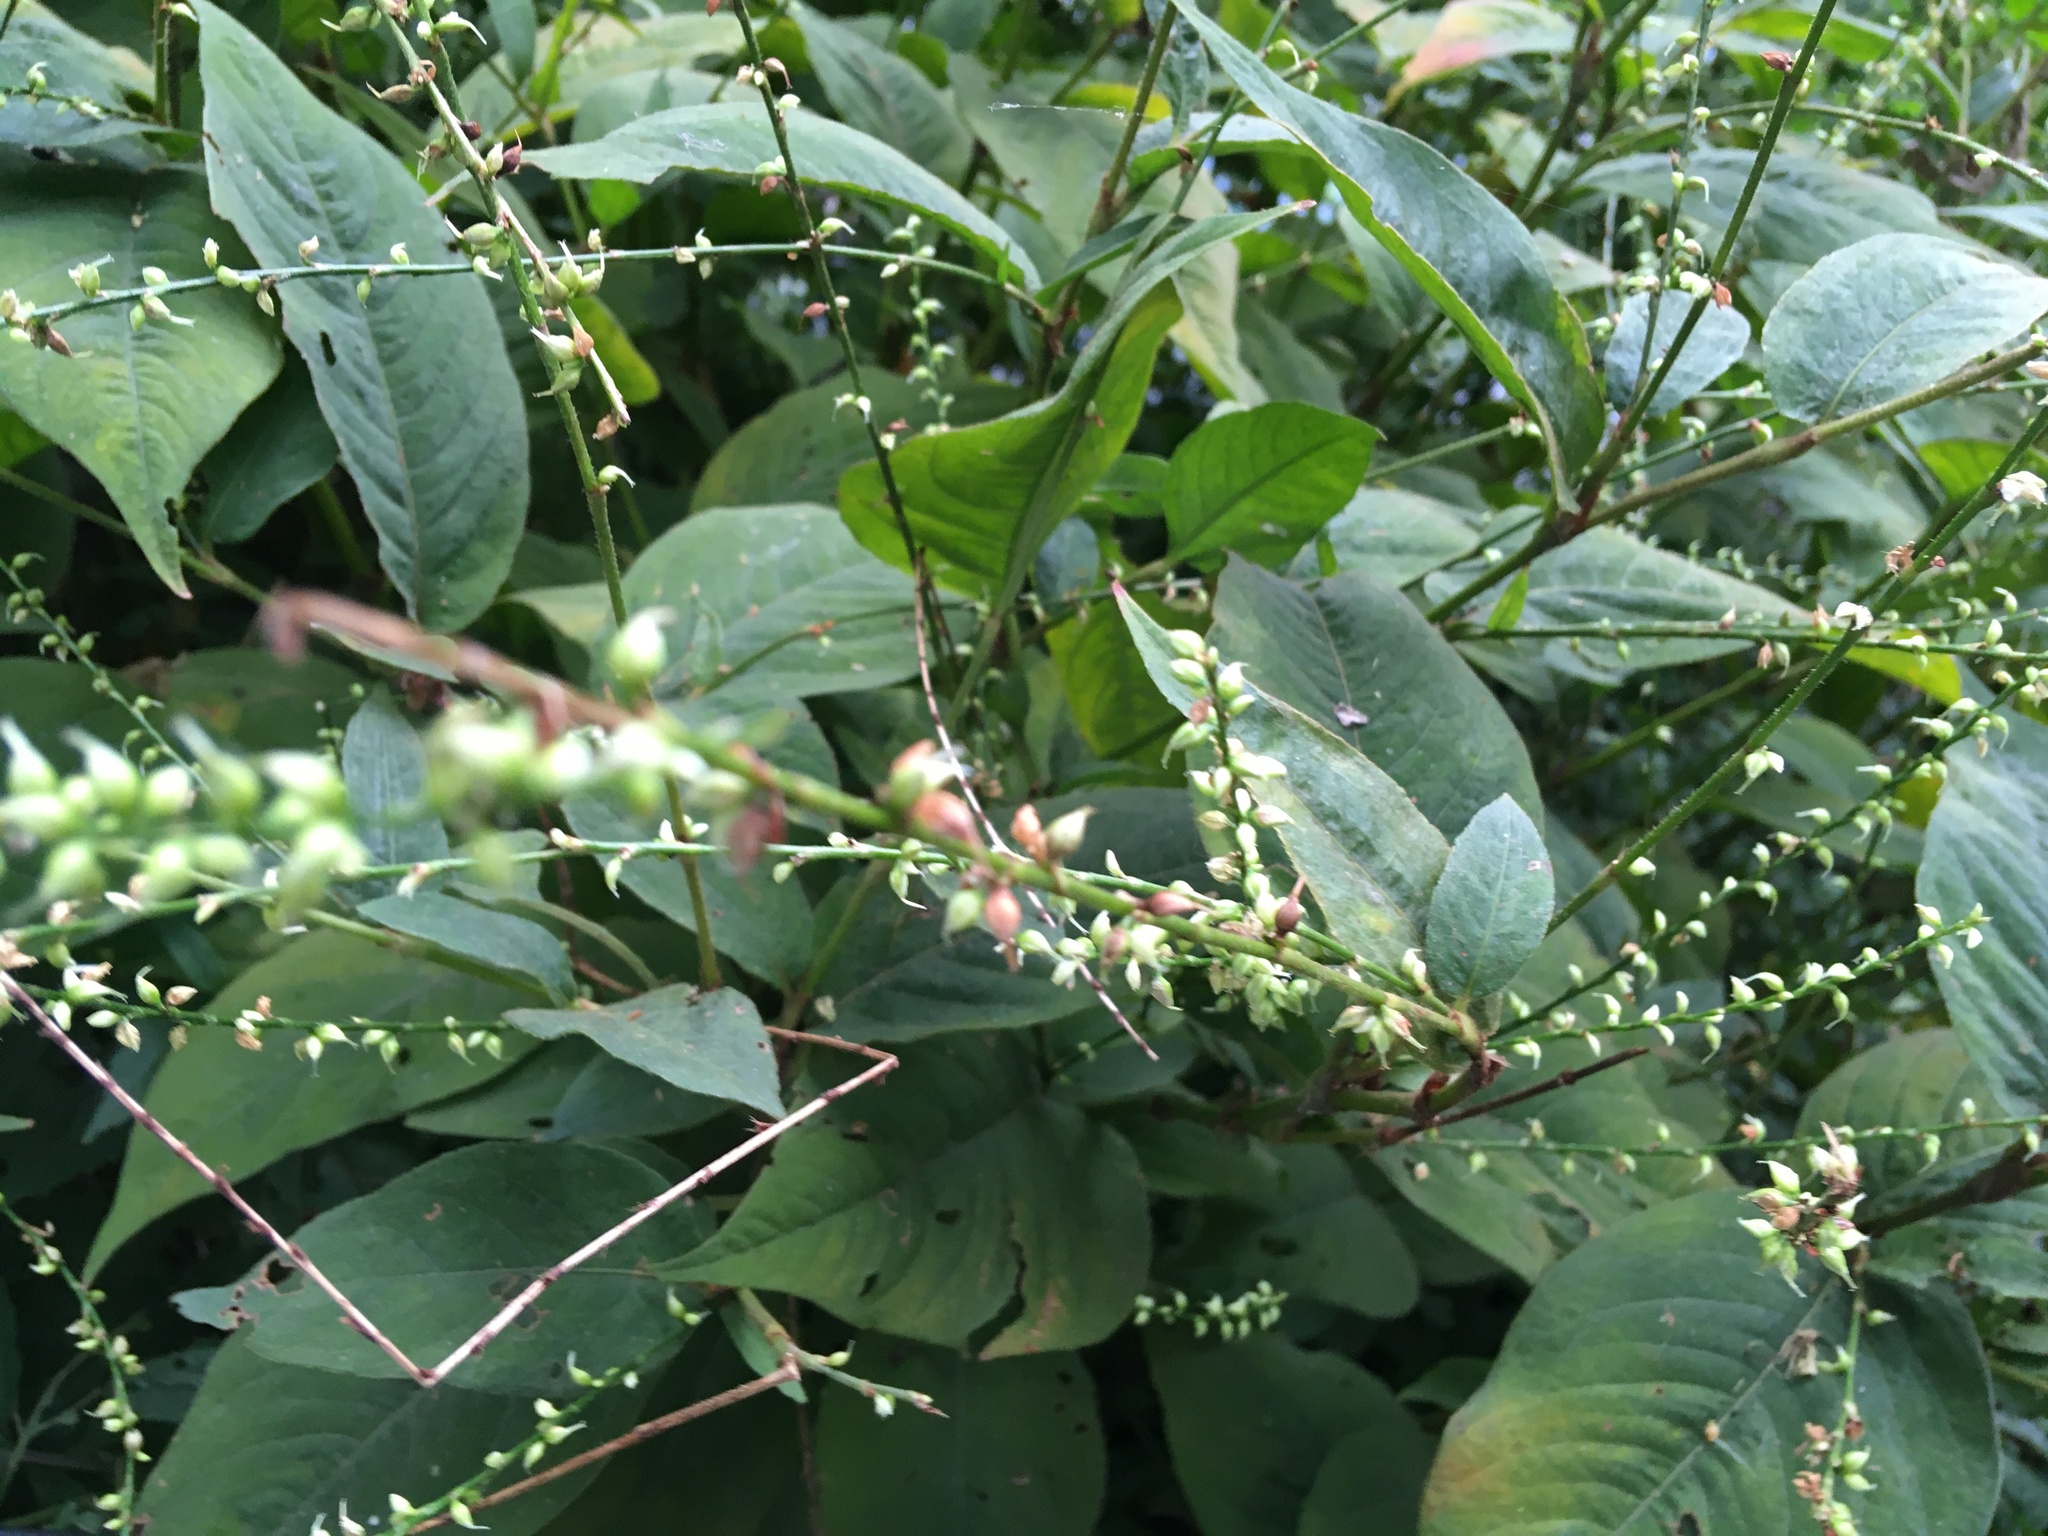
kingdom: Plantae
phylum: Tracheophyta
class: Magnoliopsida
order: Caryophyllales
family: Polygonaceae
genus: Persicaria
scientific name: Persicaria virginiana
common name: Jumpseed
